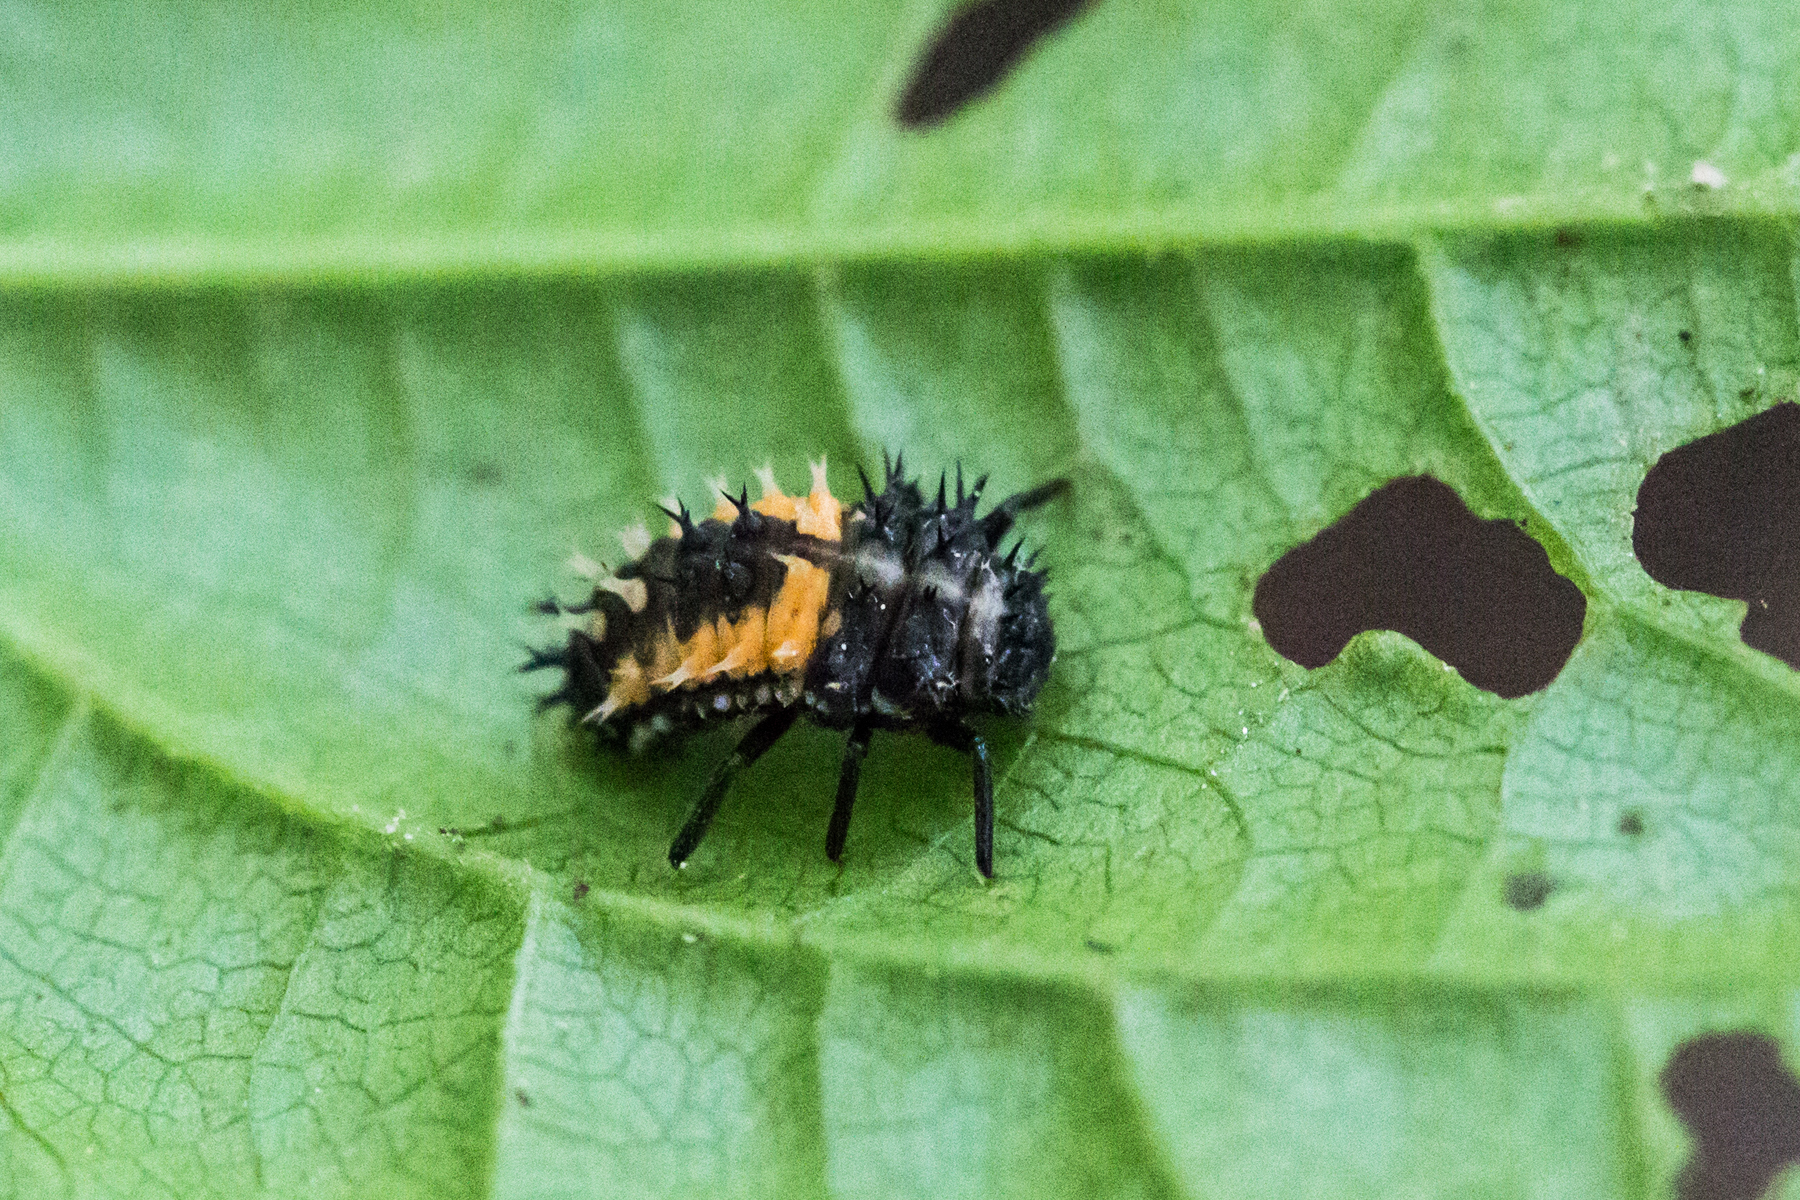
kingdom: Animalia
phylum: Arthropoda
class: Insecta
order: Coleoptera
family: Coccinellidae
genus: Harmonia
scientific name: Harmonia axyridis
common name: Harlequin ladybird
